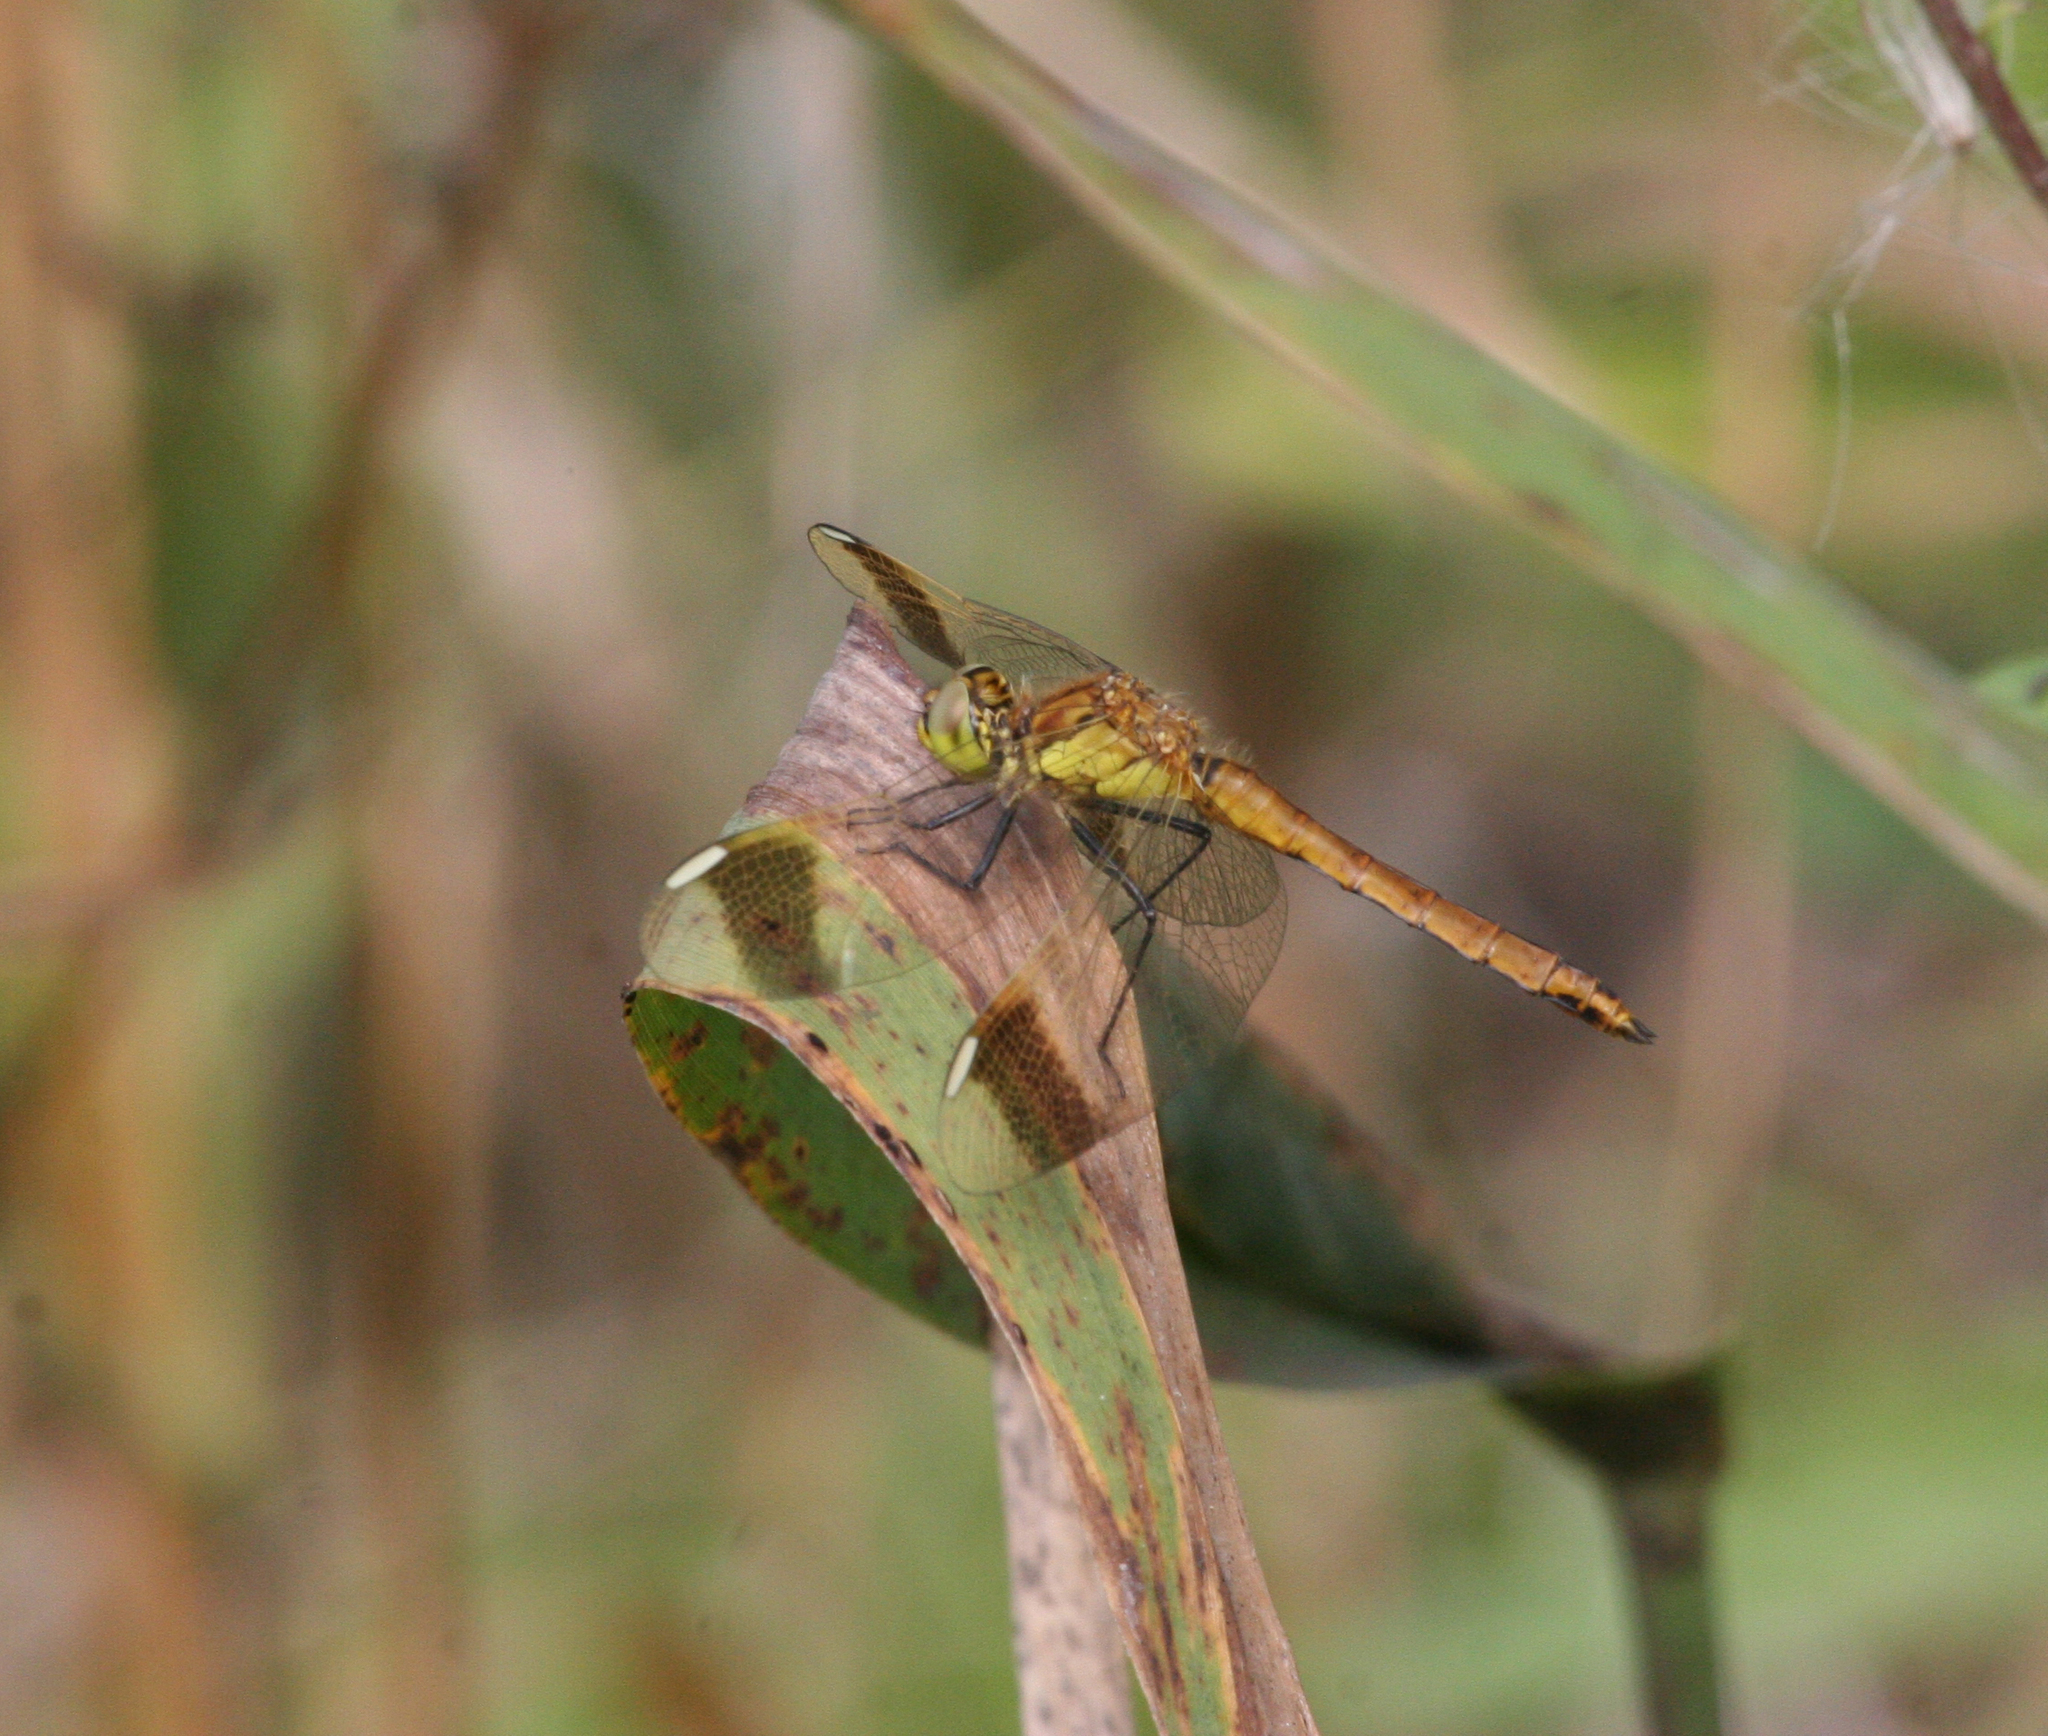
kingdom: Animalia
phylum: Arthropoda
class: Insecta
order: Odonata
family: Libellulidae
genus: Sympetrum
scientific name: Sympetrum pedemontanum
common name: Banded darter
